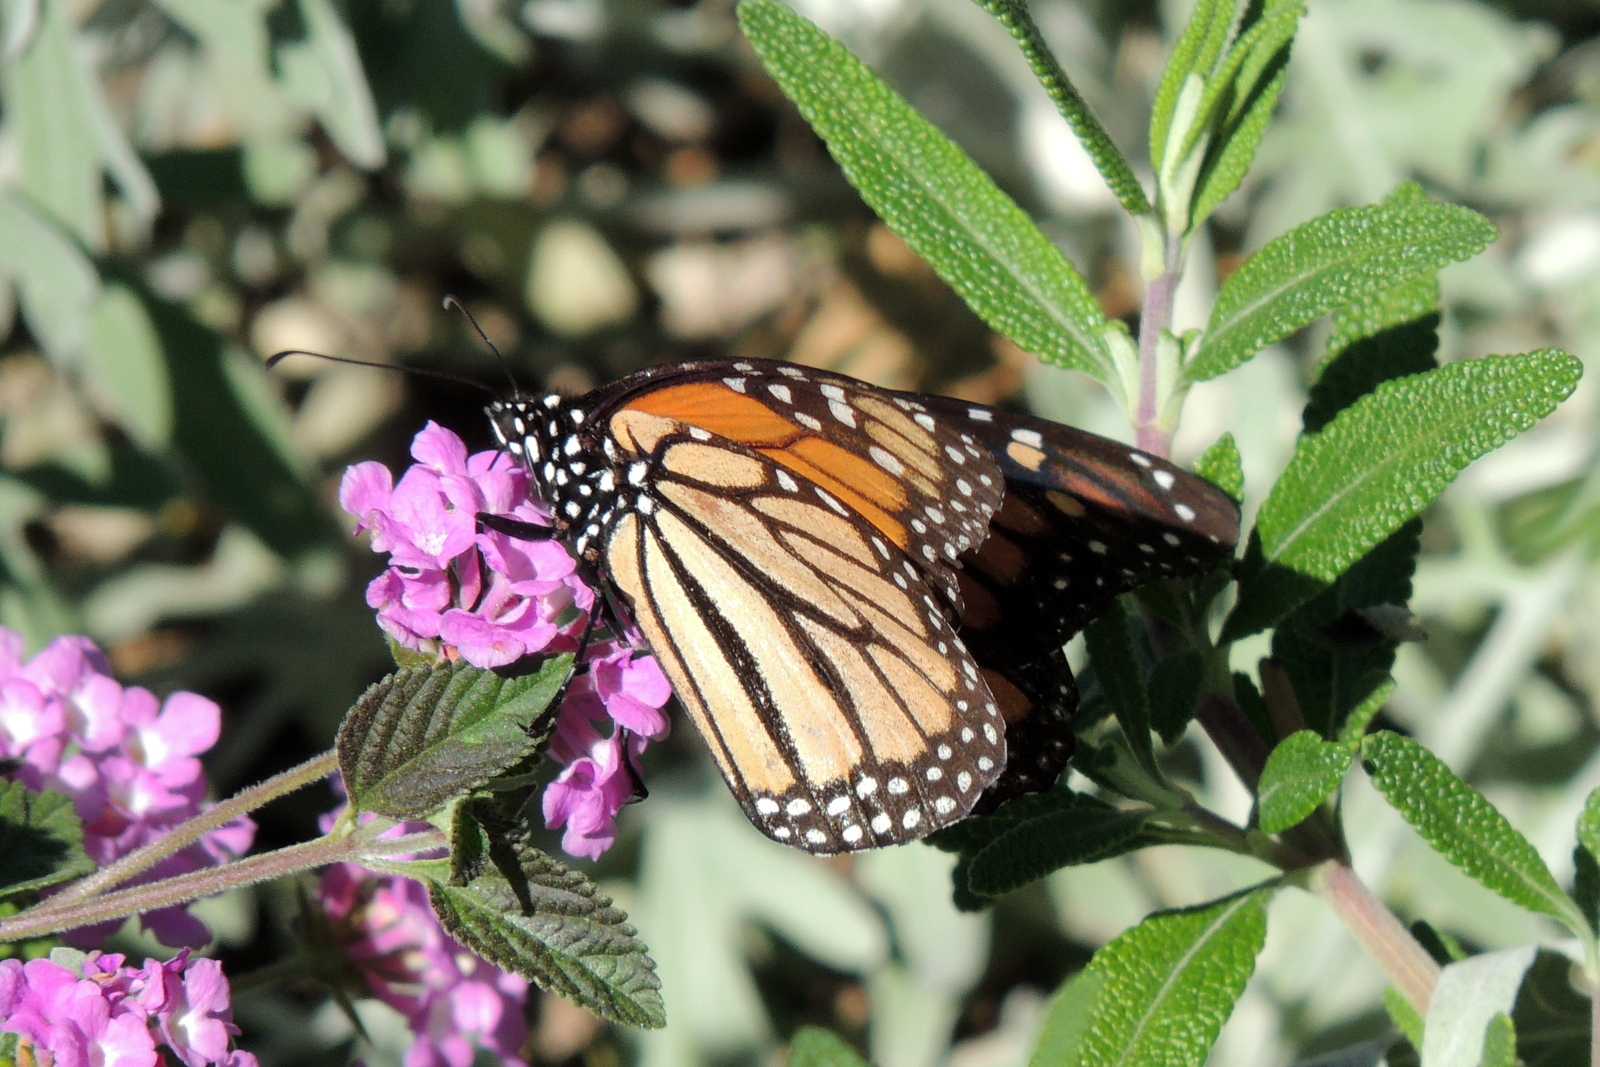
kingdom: Animalia
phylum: Arthropoda
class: Insecta
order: Lepidoptera
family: Nymphalidae
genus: Danaus
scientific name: Danaus plexippus
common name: Monarch
